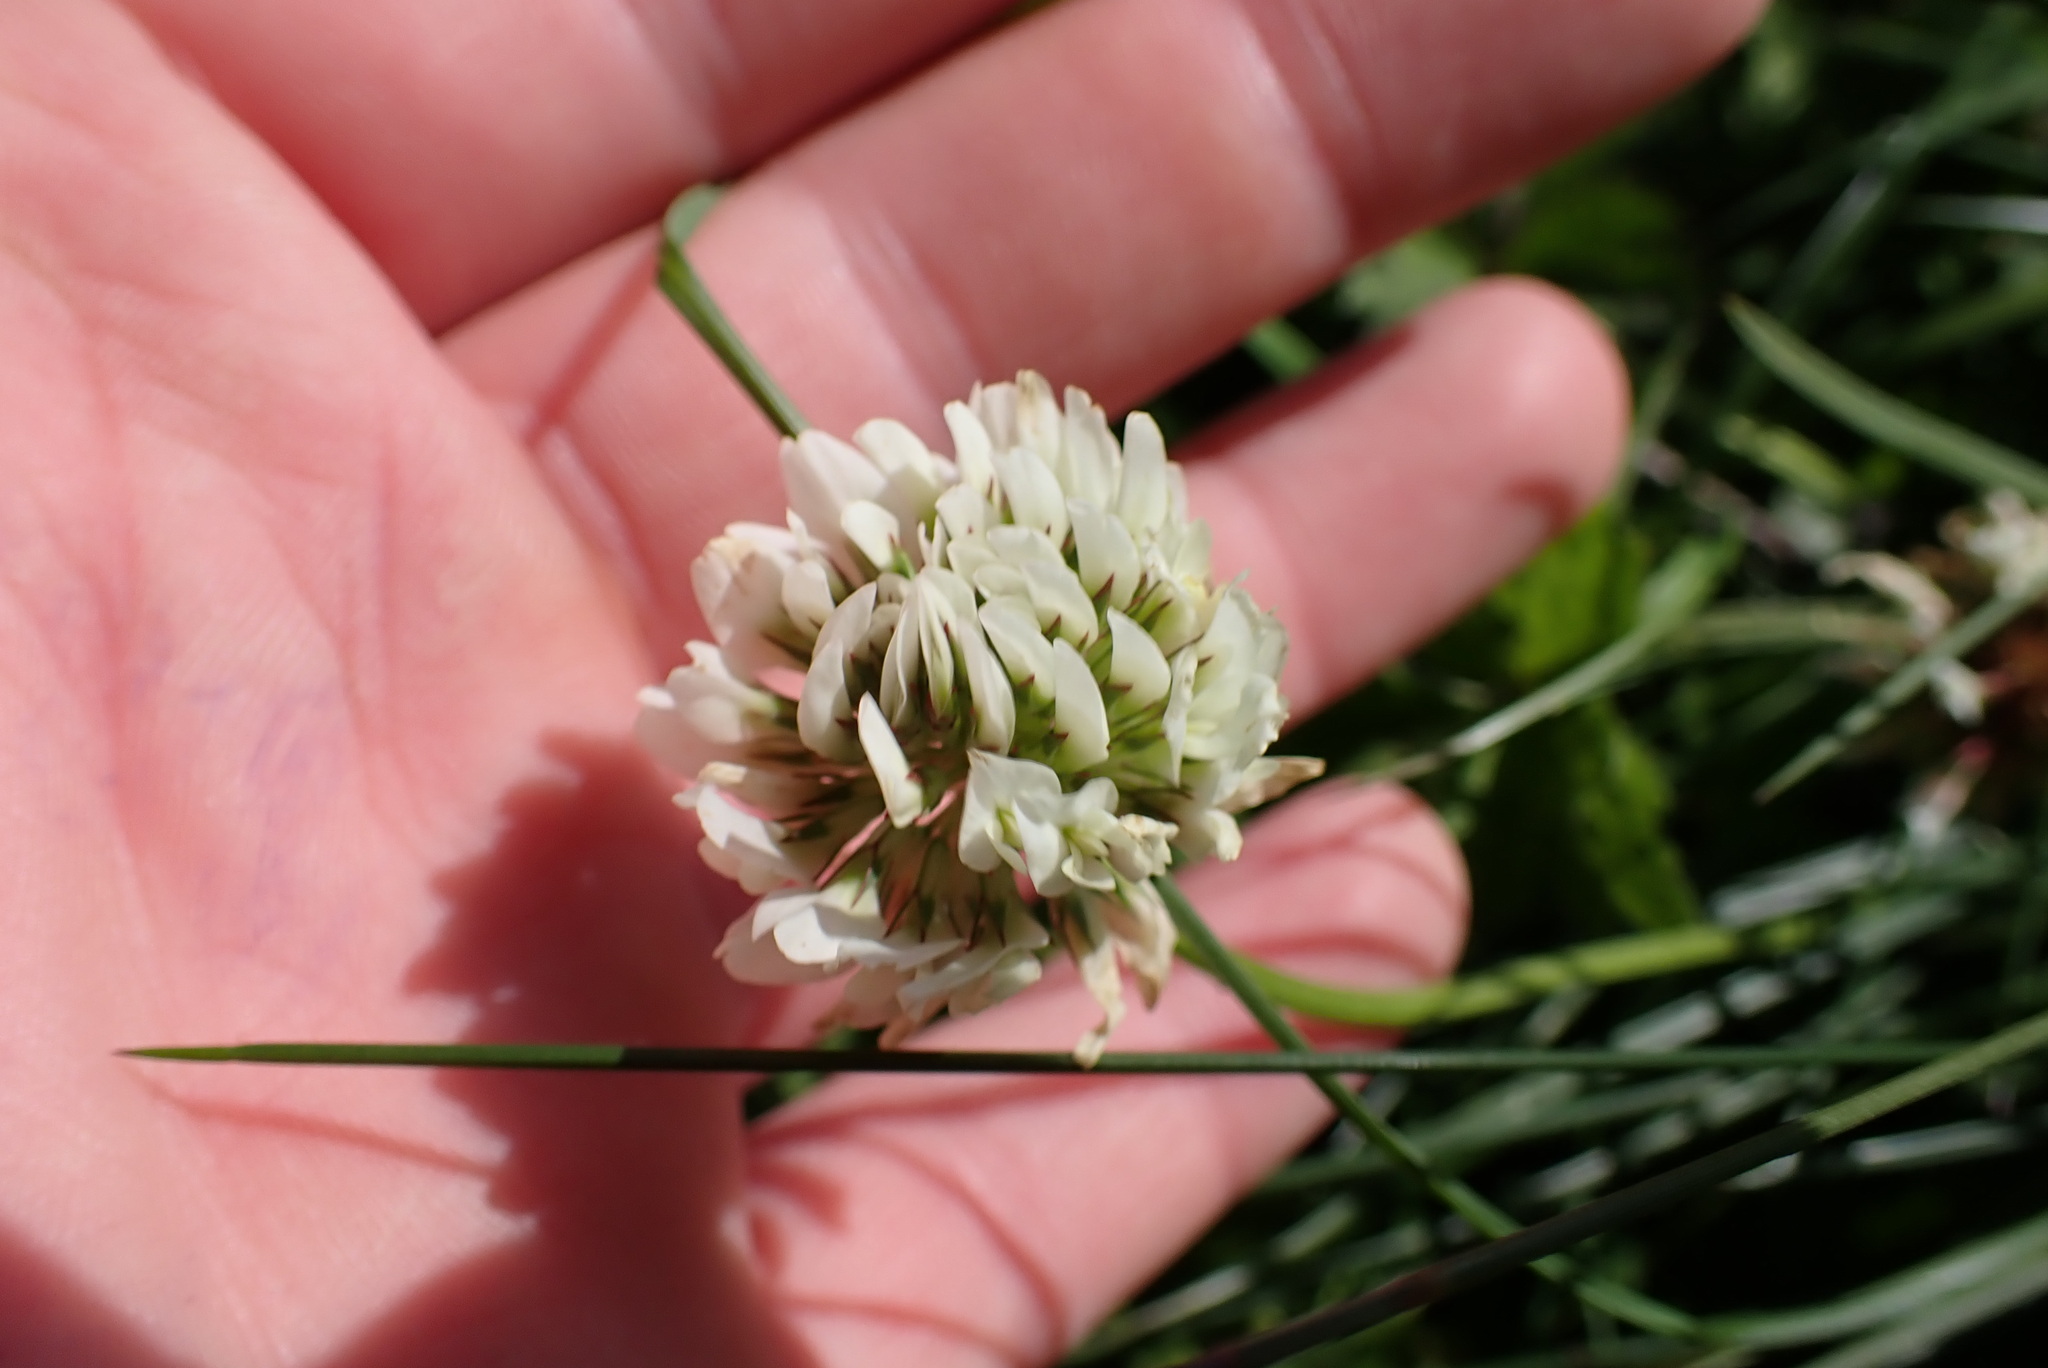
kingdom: Plantae
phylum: Tracheophyta
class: Magnoliopsida
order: Fabales
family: Fabaceae
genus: Trifolium
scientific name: Trifolium repens
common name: White clover
